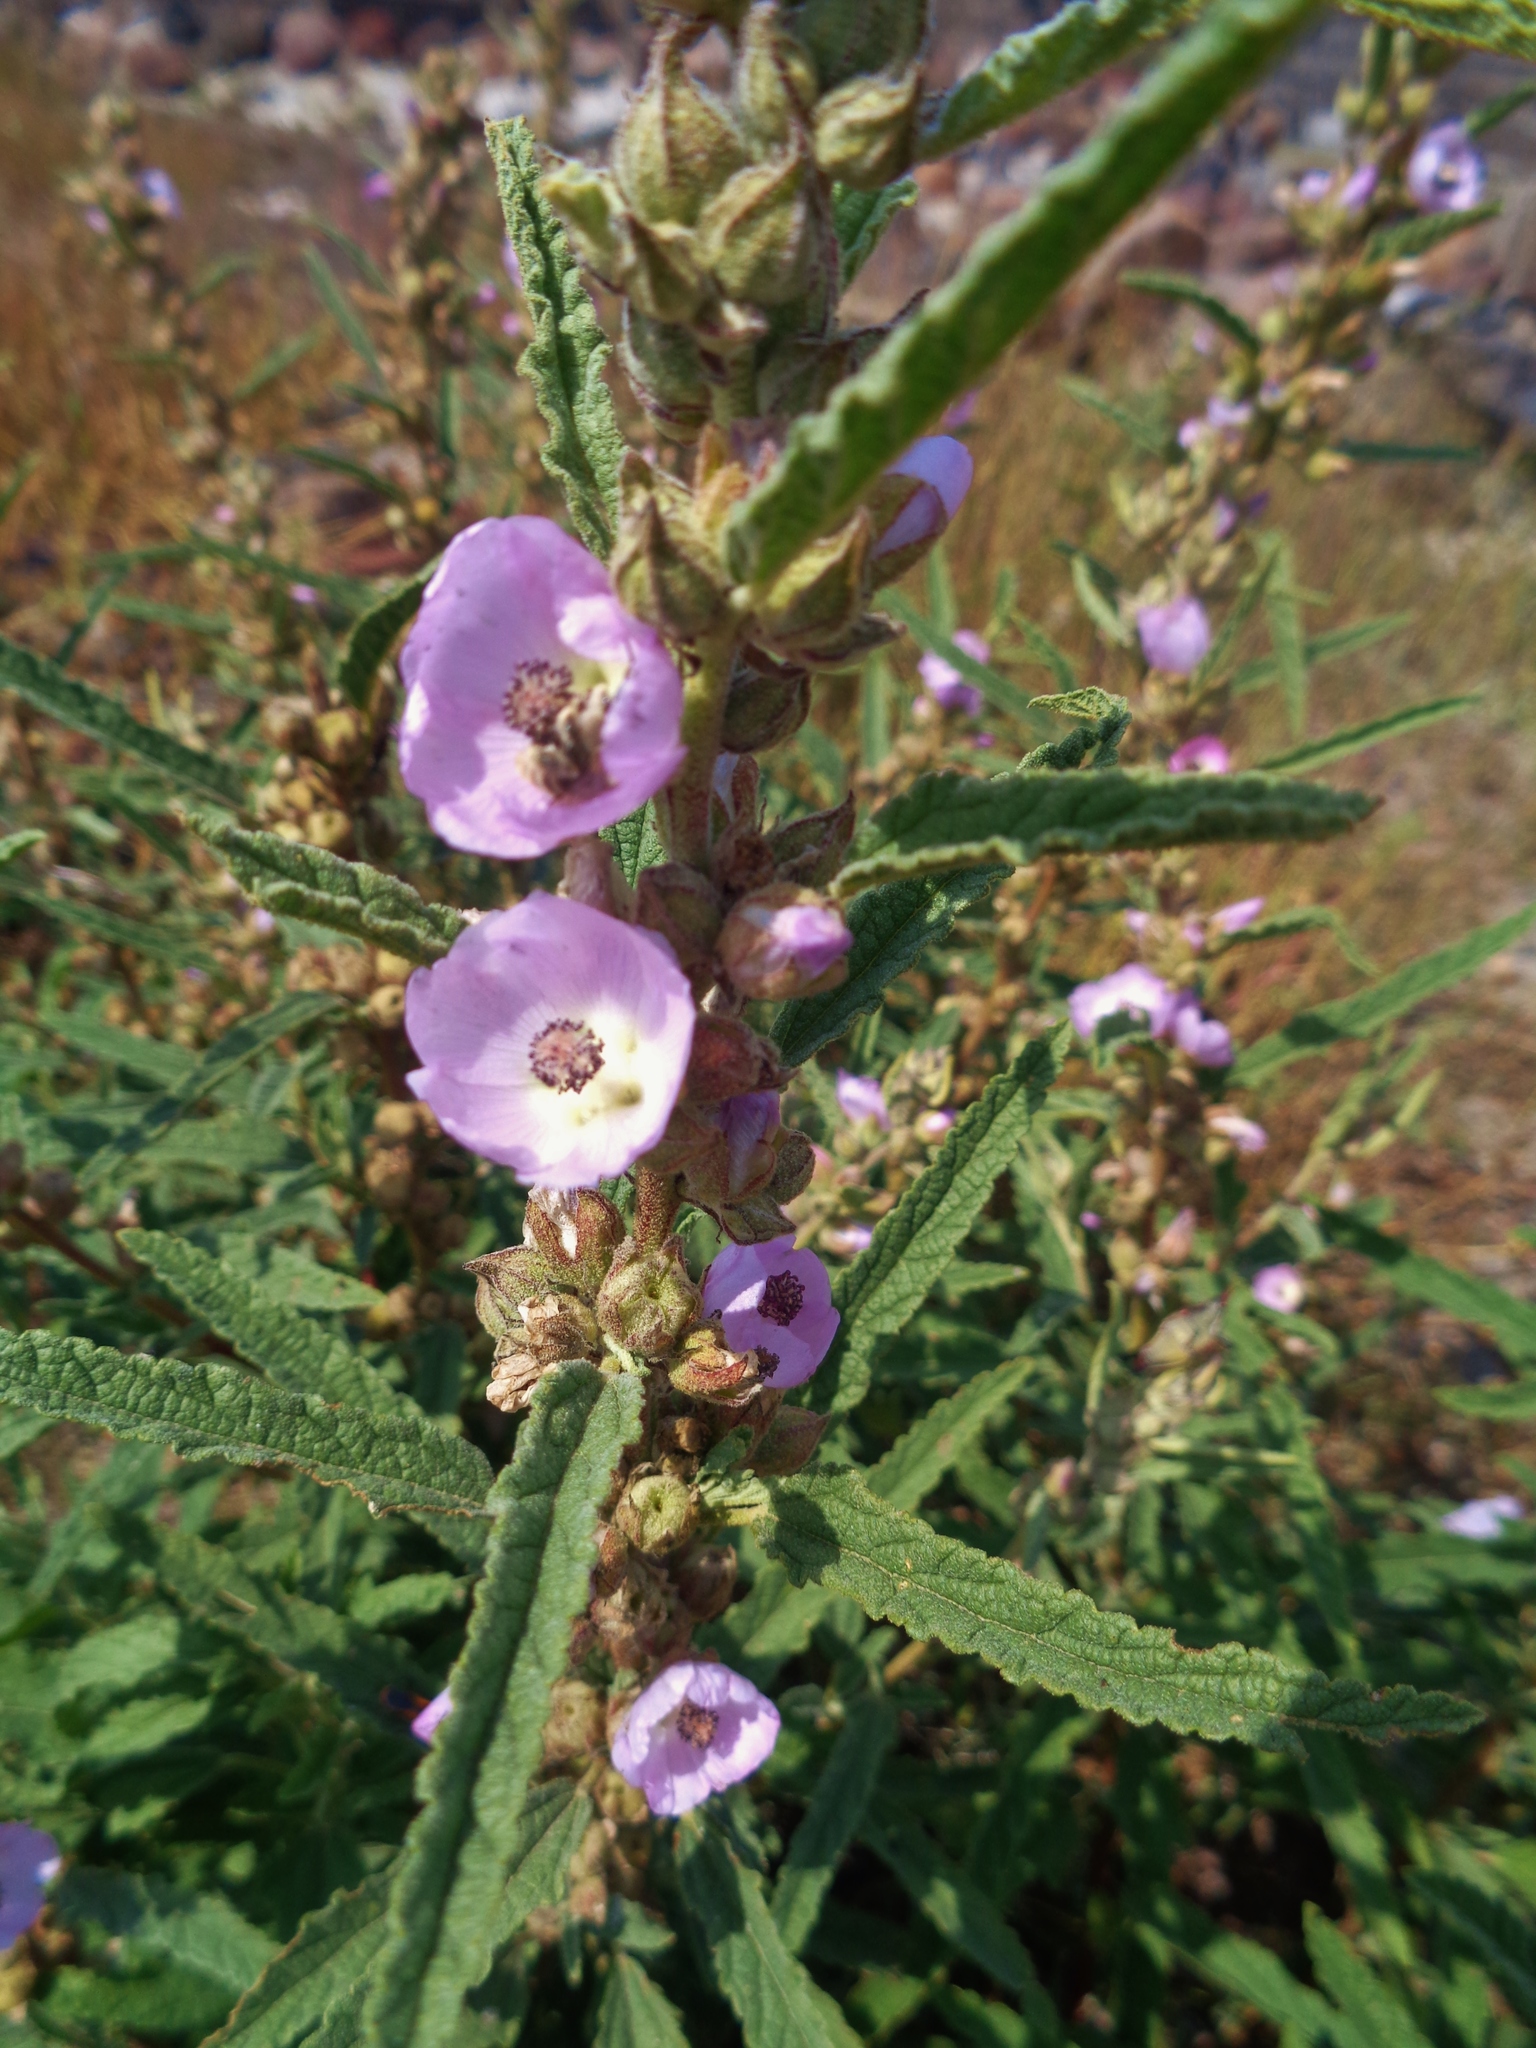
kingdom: Plantae
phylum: Tracheophyta
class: Magnoliopsida
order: Malvales
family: Malvaceae
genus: Sphaeralcea
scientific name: Sphaeralcea angustifolia
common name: Copper globe-mallow
